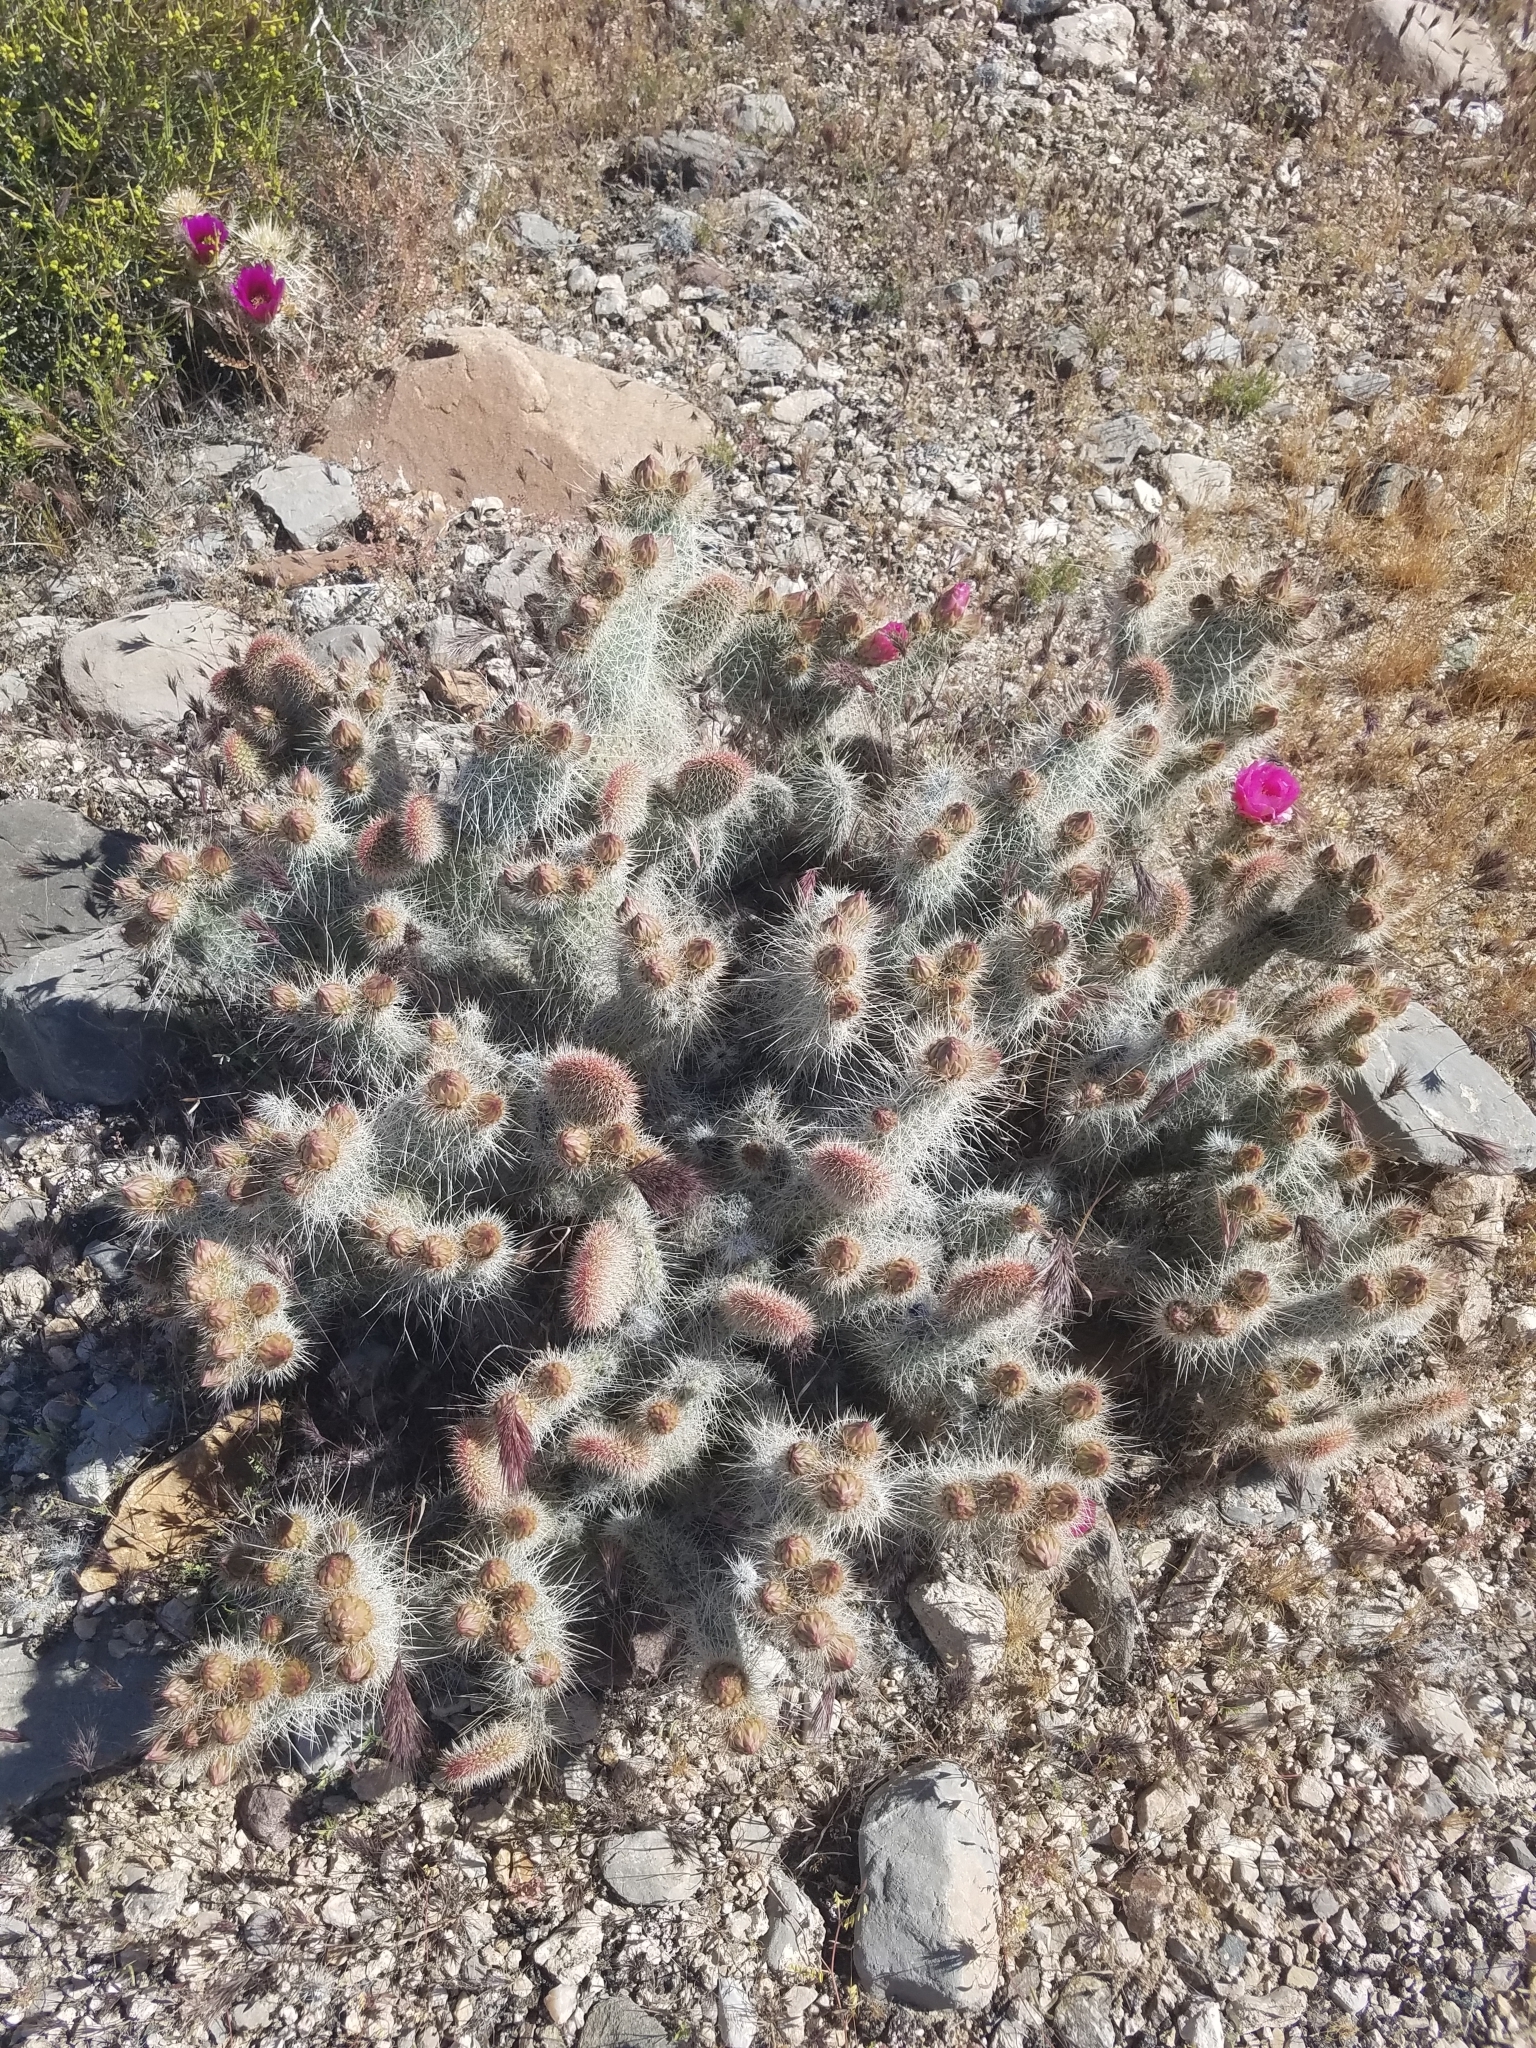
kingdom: Plantae
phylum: Tracheophyta
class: Magnoliopsida
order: Caryophyllales
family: Cactaceae
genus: Opuntia
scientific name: Opuntia polyacantha
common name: Plains prickly-pear
